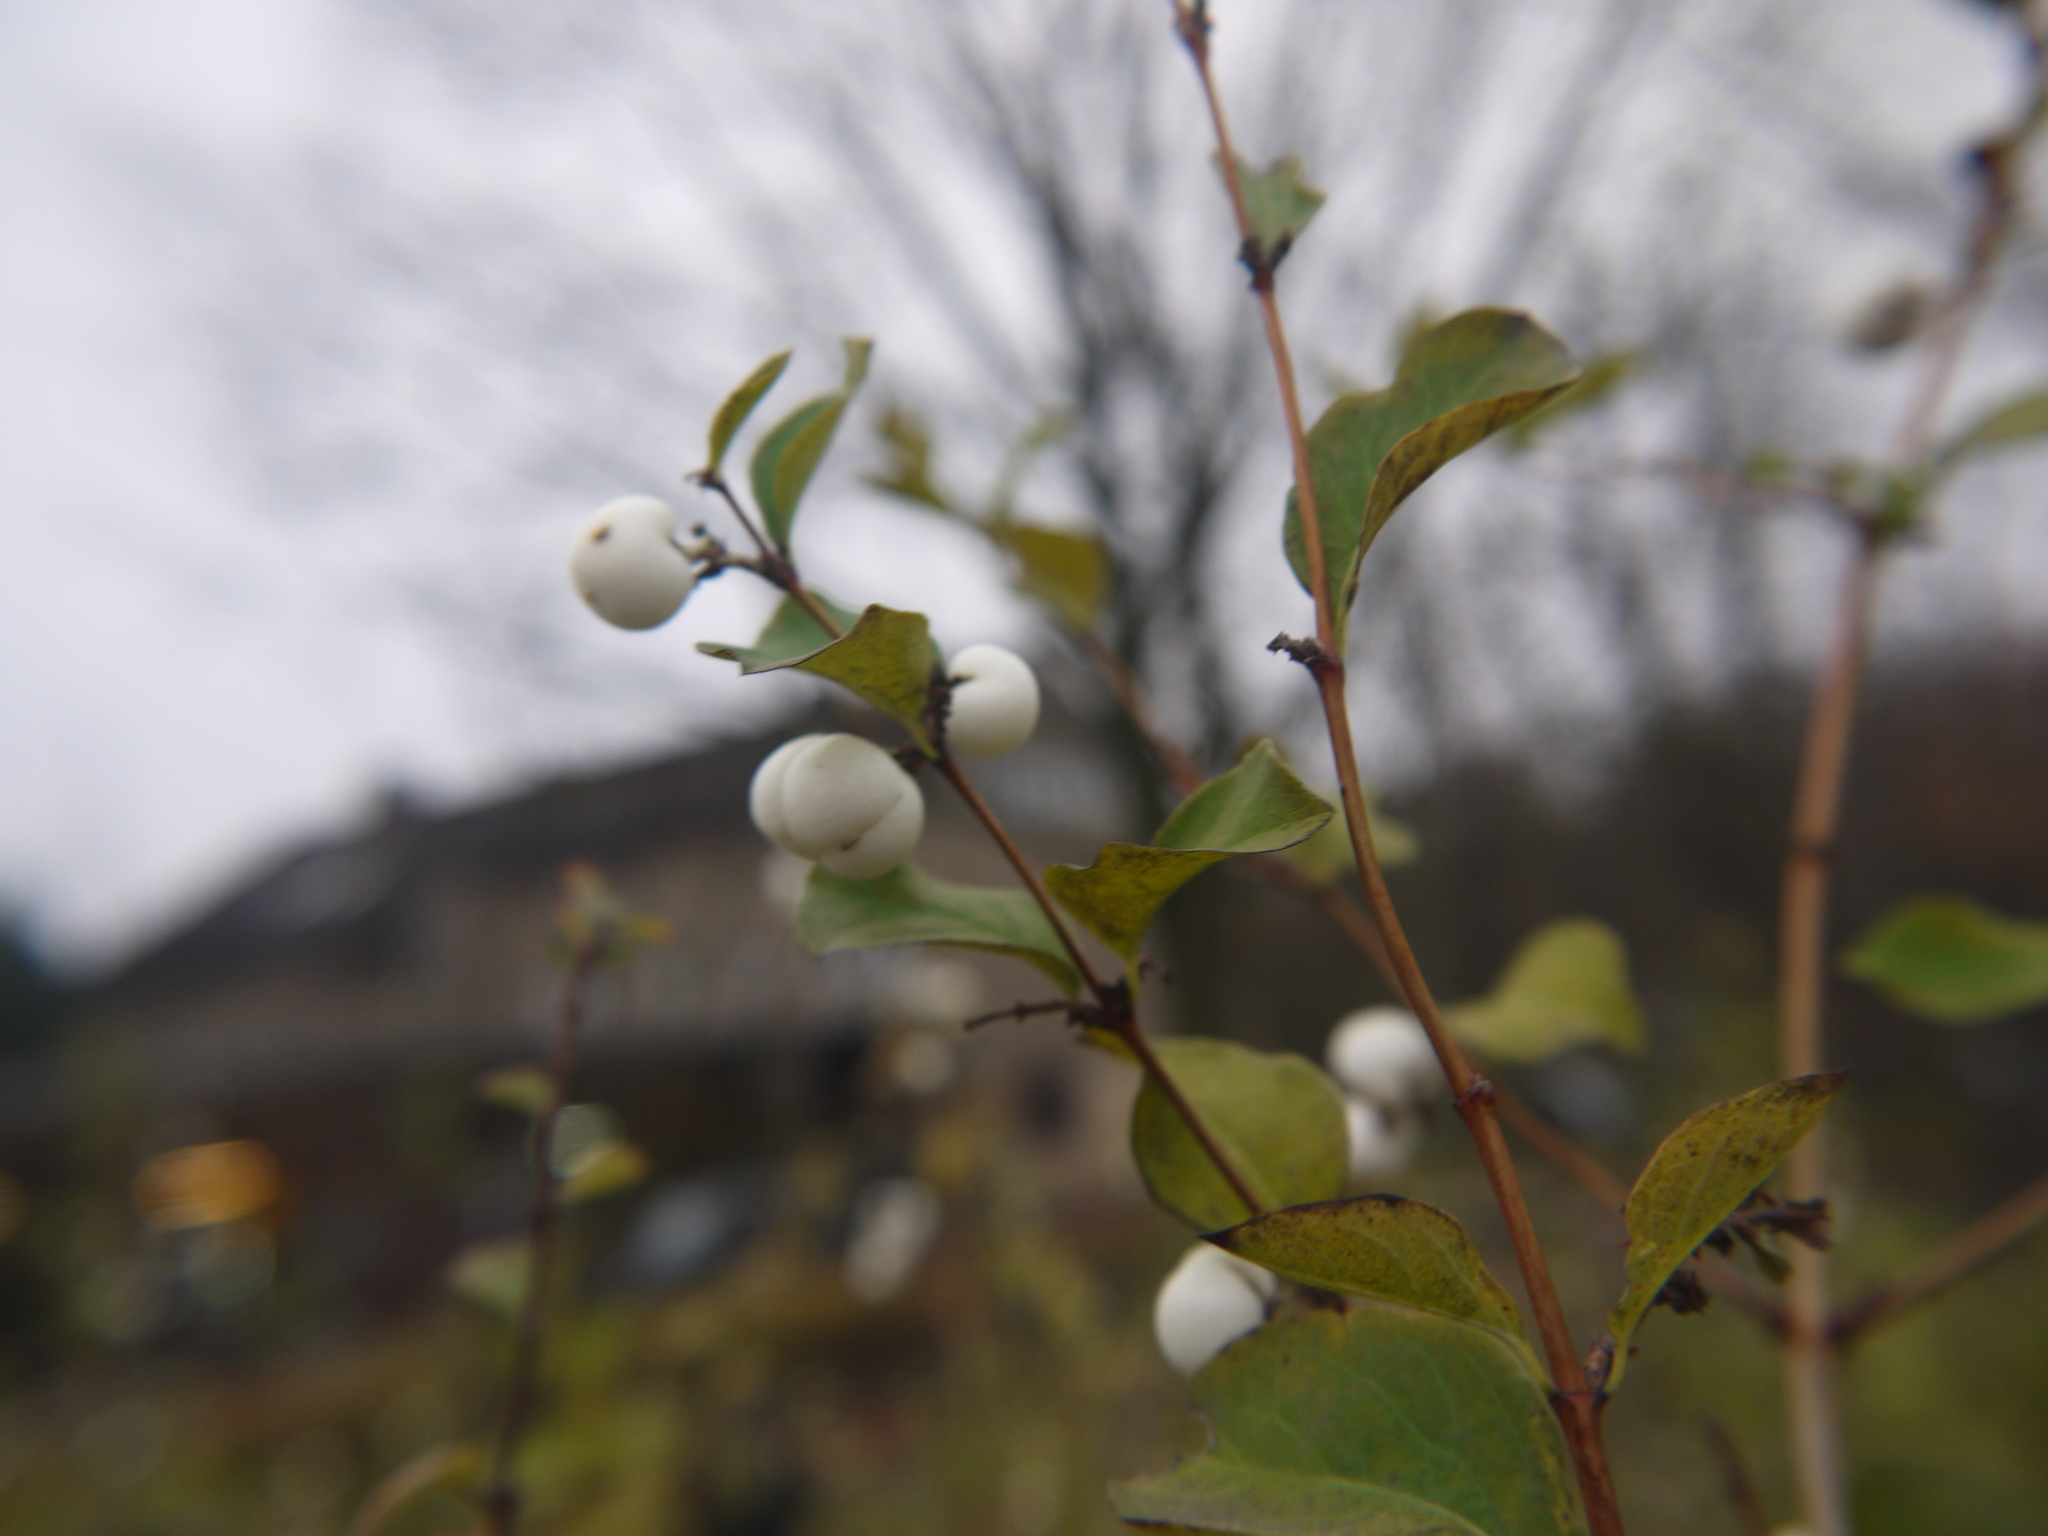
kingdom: Plantae
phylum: Tracheophyta
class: Magnoliopsida
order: Dipsacales
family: Caprifoliaceae
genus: Symphoricarpos
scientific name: Symphoricarpos albus
